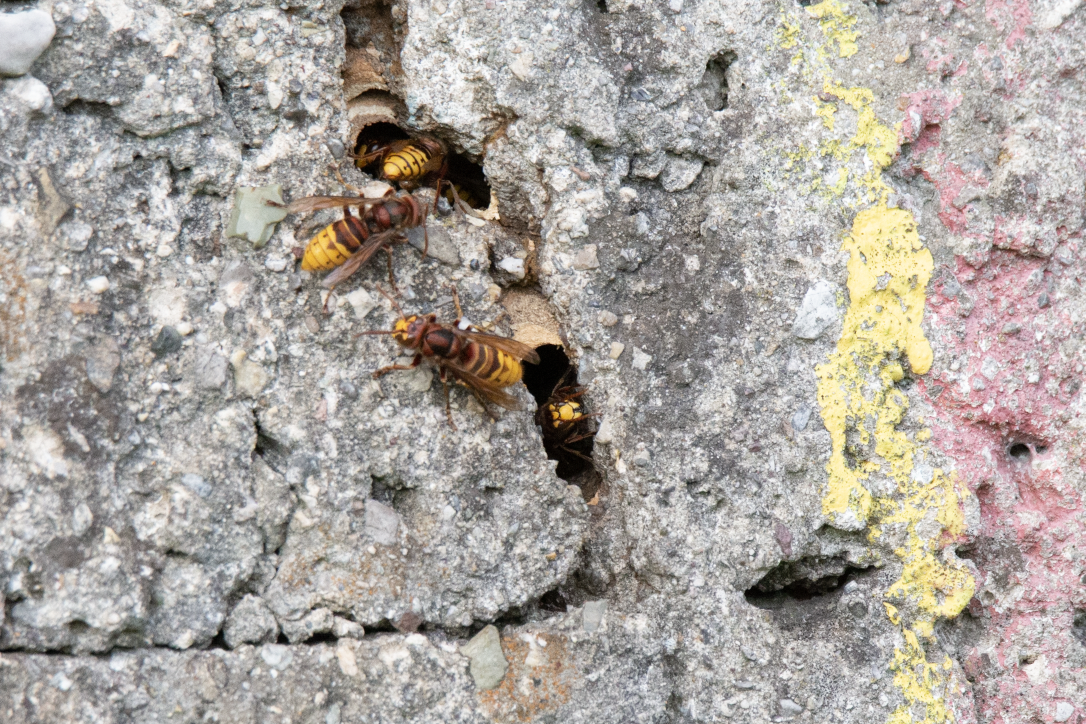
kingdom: Animalia
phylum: Arthropoda
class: Insecta
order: Hymenoptera
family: Vespidae
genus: Vespa
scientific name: Vespa crabro
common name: Hornet
